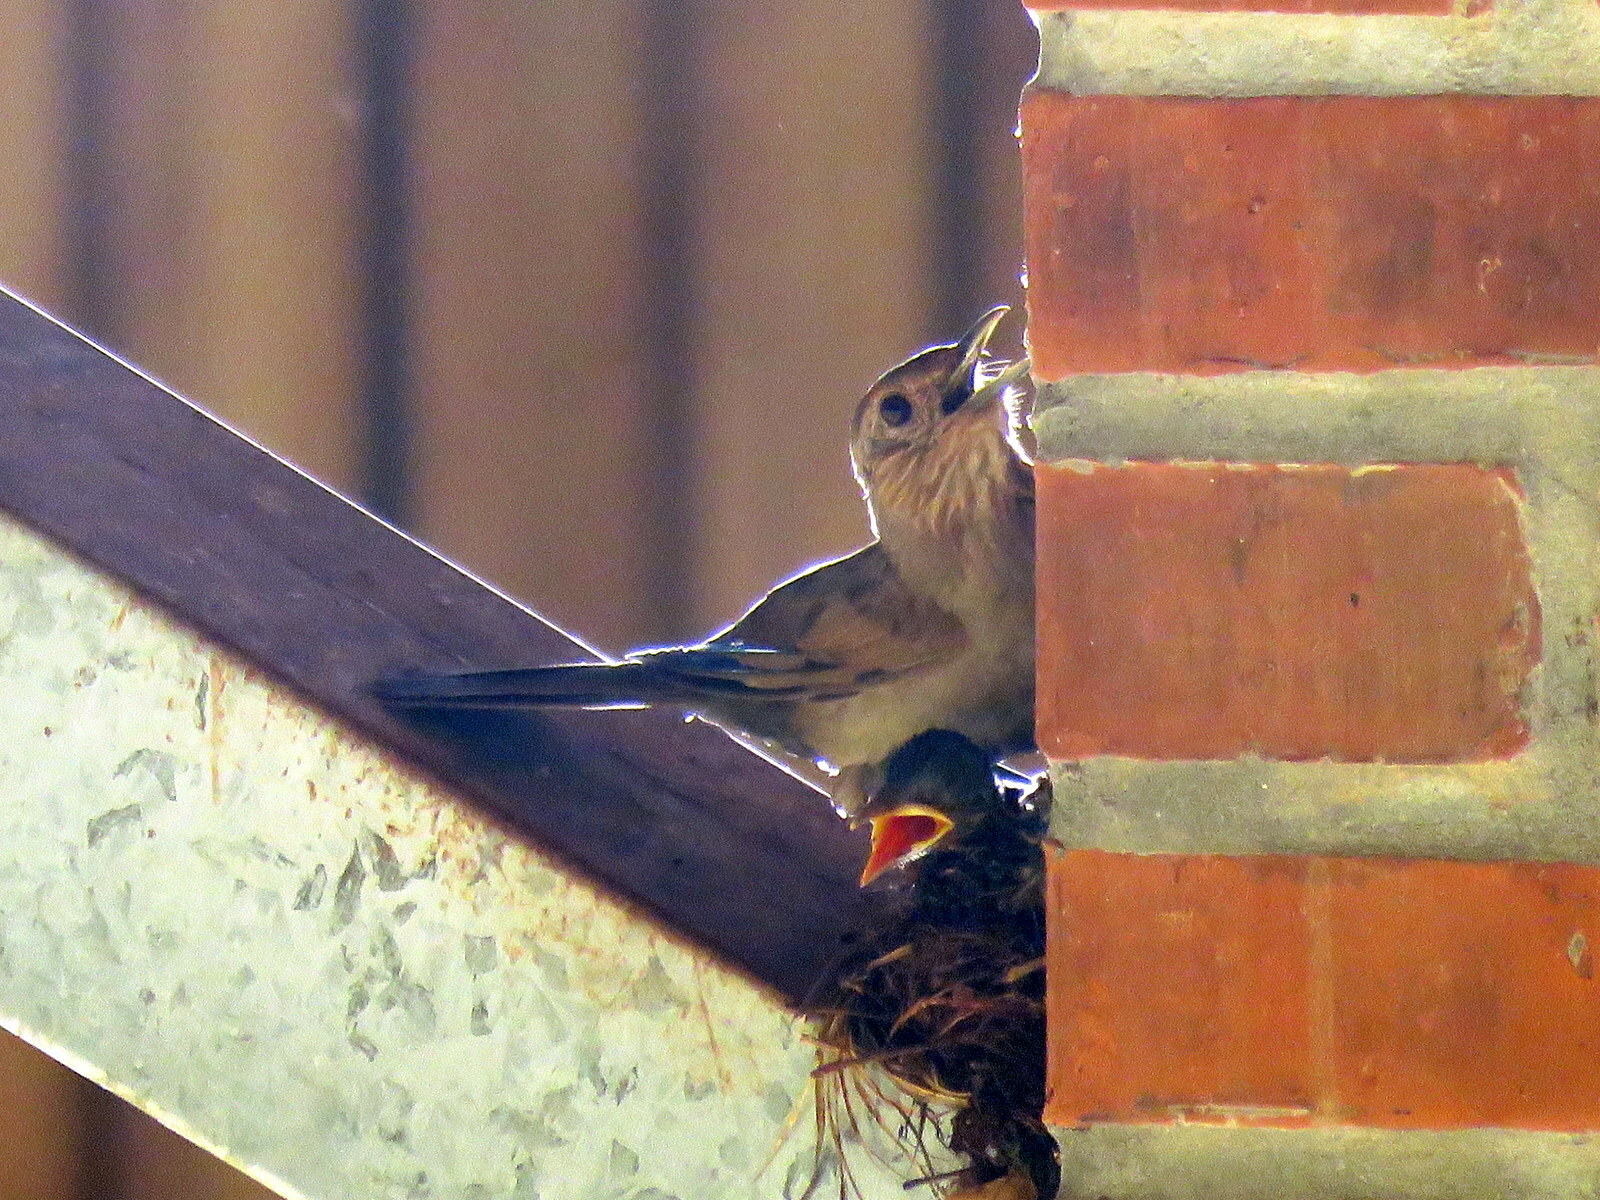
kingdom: Animalia
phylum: Chordata
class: Aves
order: Passeriformes
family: Turdidae
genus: Turdus
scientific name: Turdus leucomelas
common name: Pale-breasted thrush
